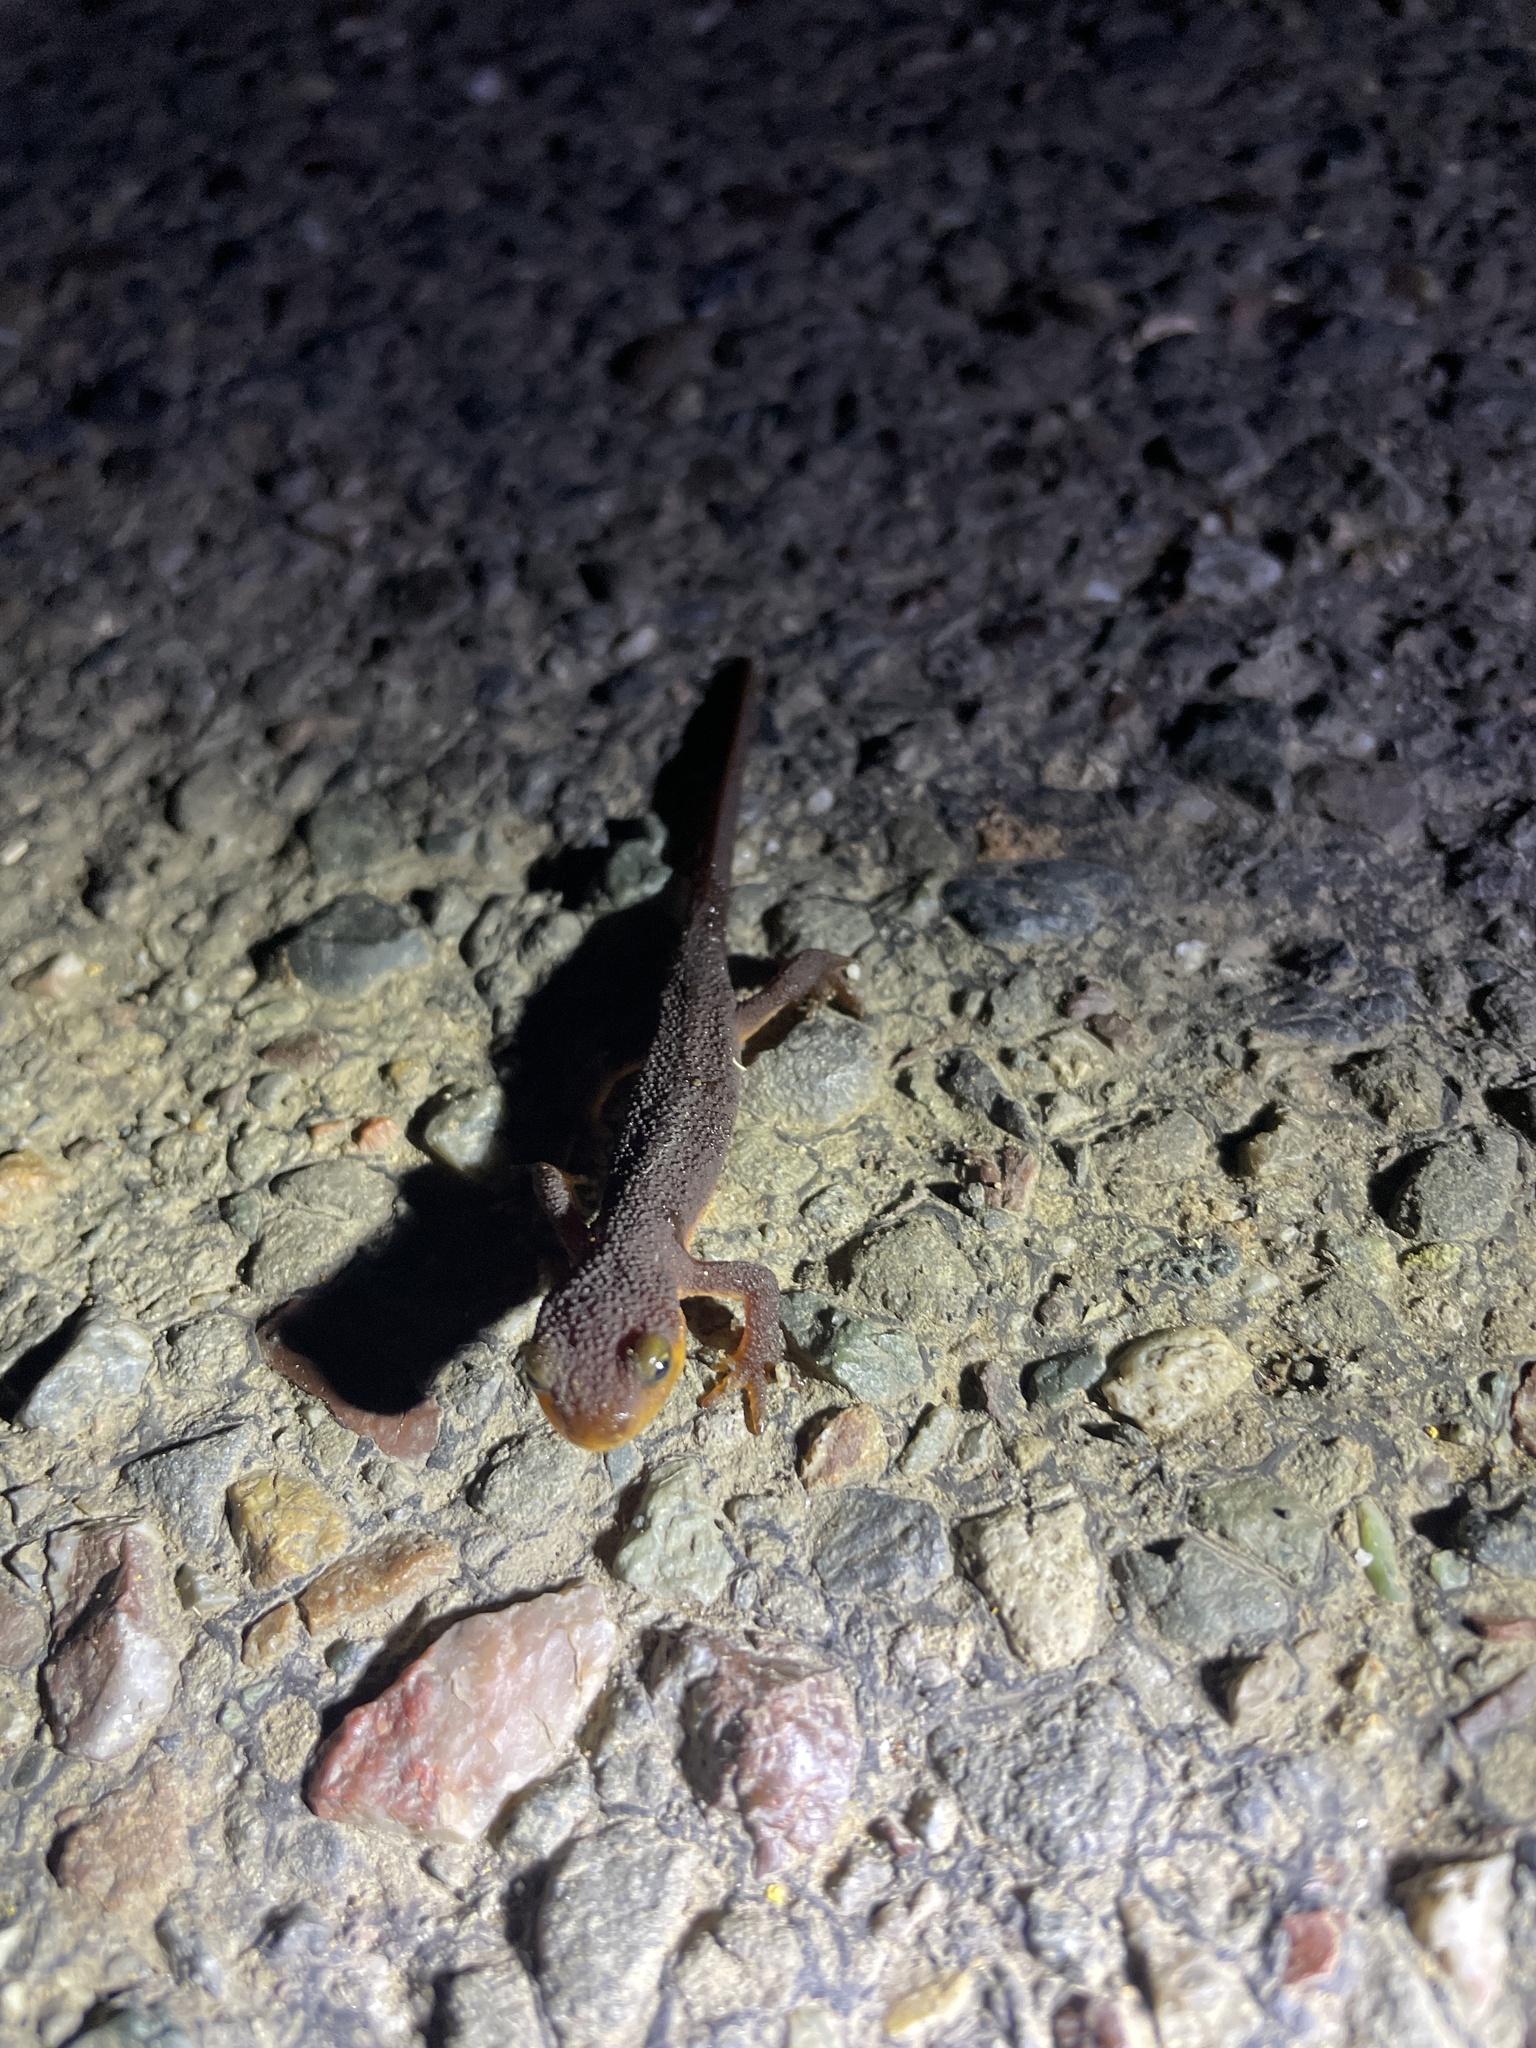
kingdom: Animalia
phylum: Chordata
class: Amphibia
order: Caudata
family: Salamandridae
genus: Taricha
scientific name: Taricha torosa
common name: California newt
